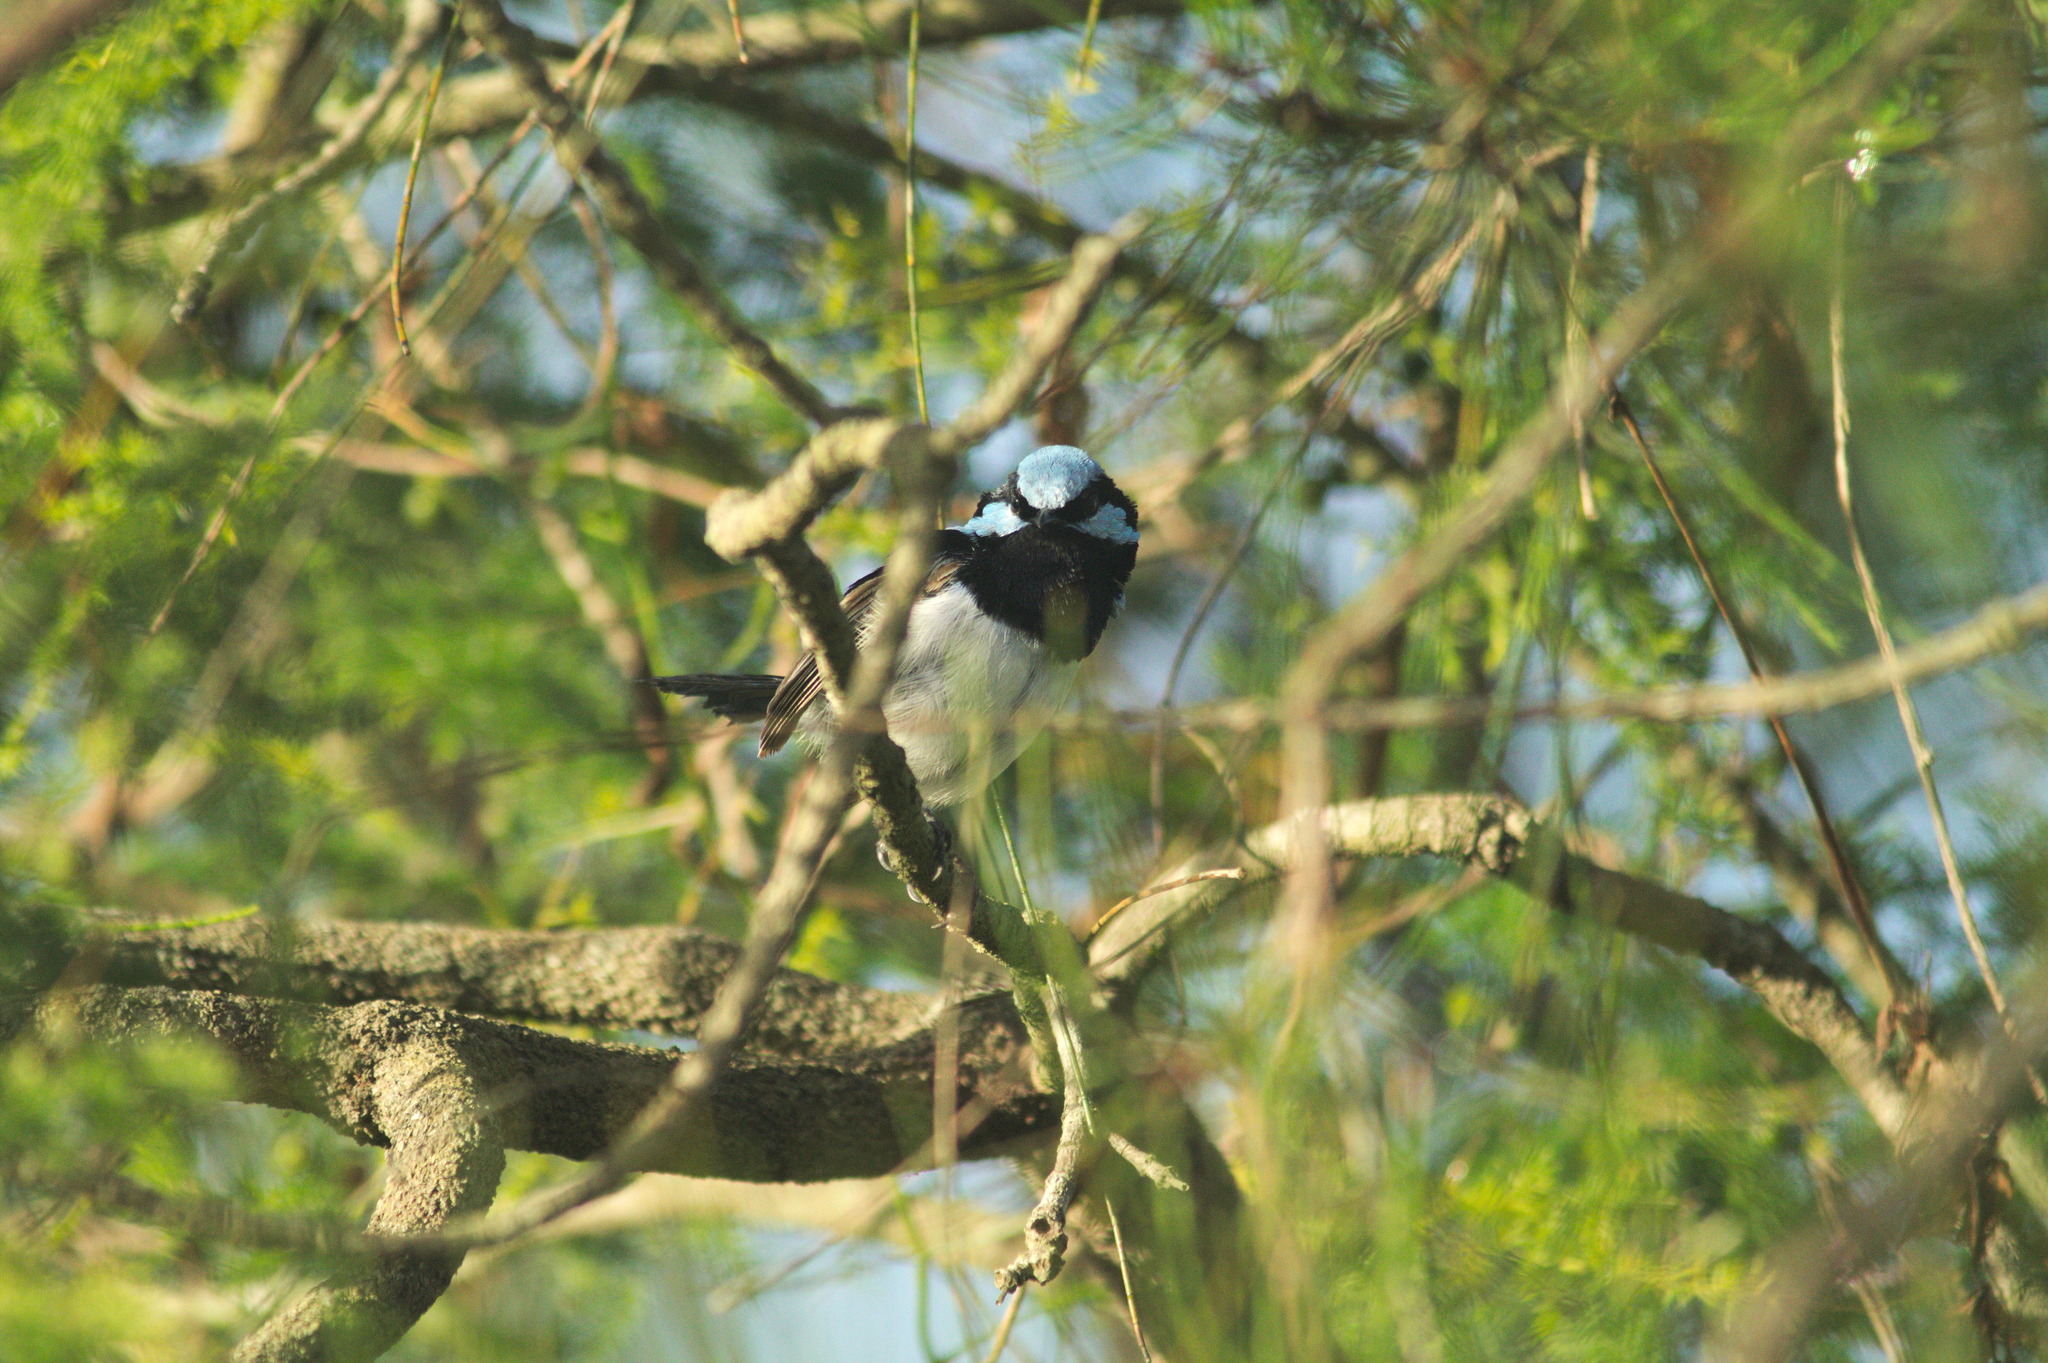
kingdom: Animalia
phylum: Chordata
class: Aves
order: Passeriformes
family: Maluridae
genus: Malurus
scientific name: Malurus cyaneus
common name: Superb fairywren
